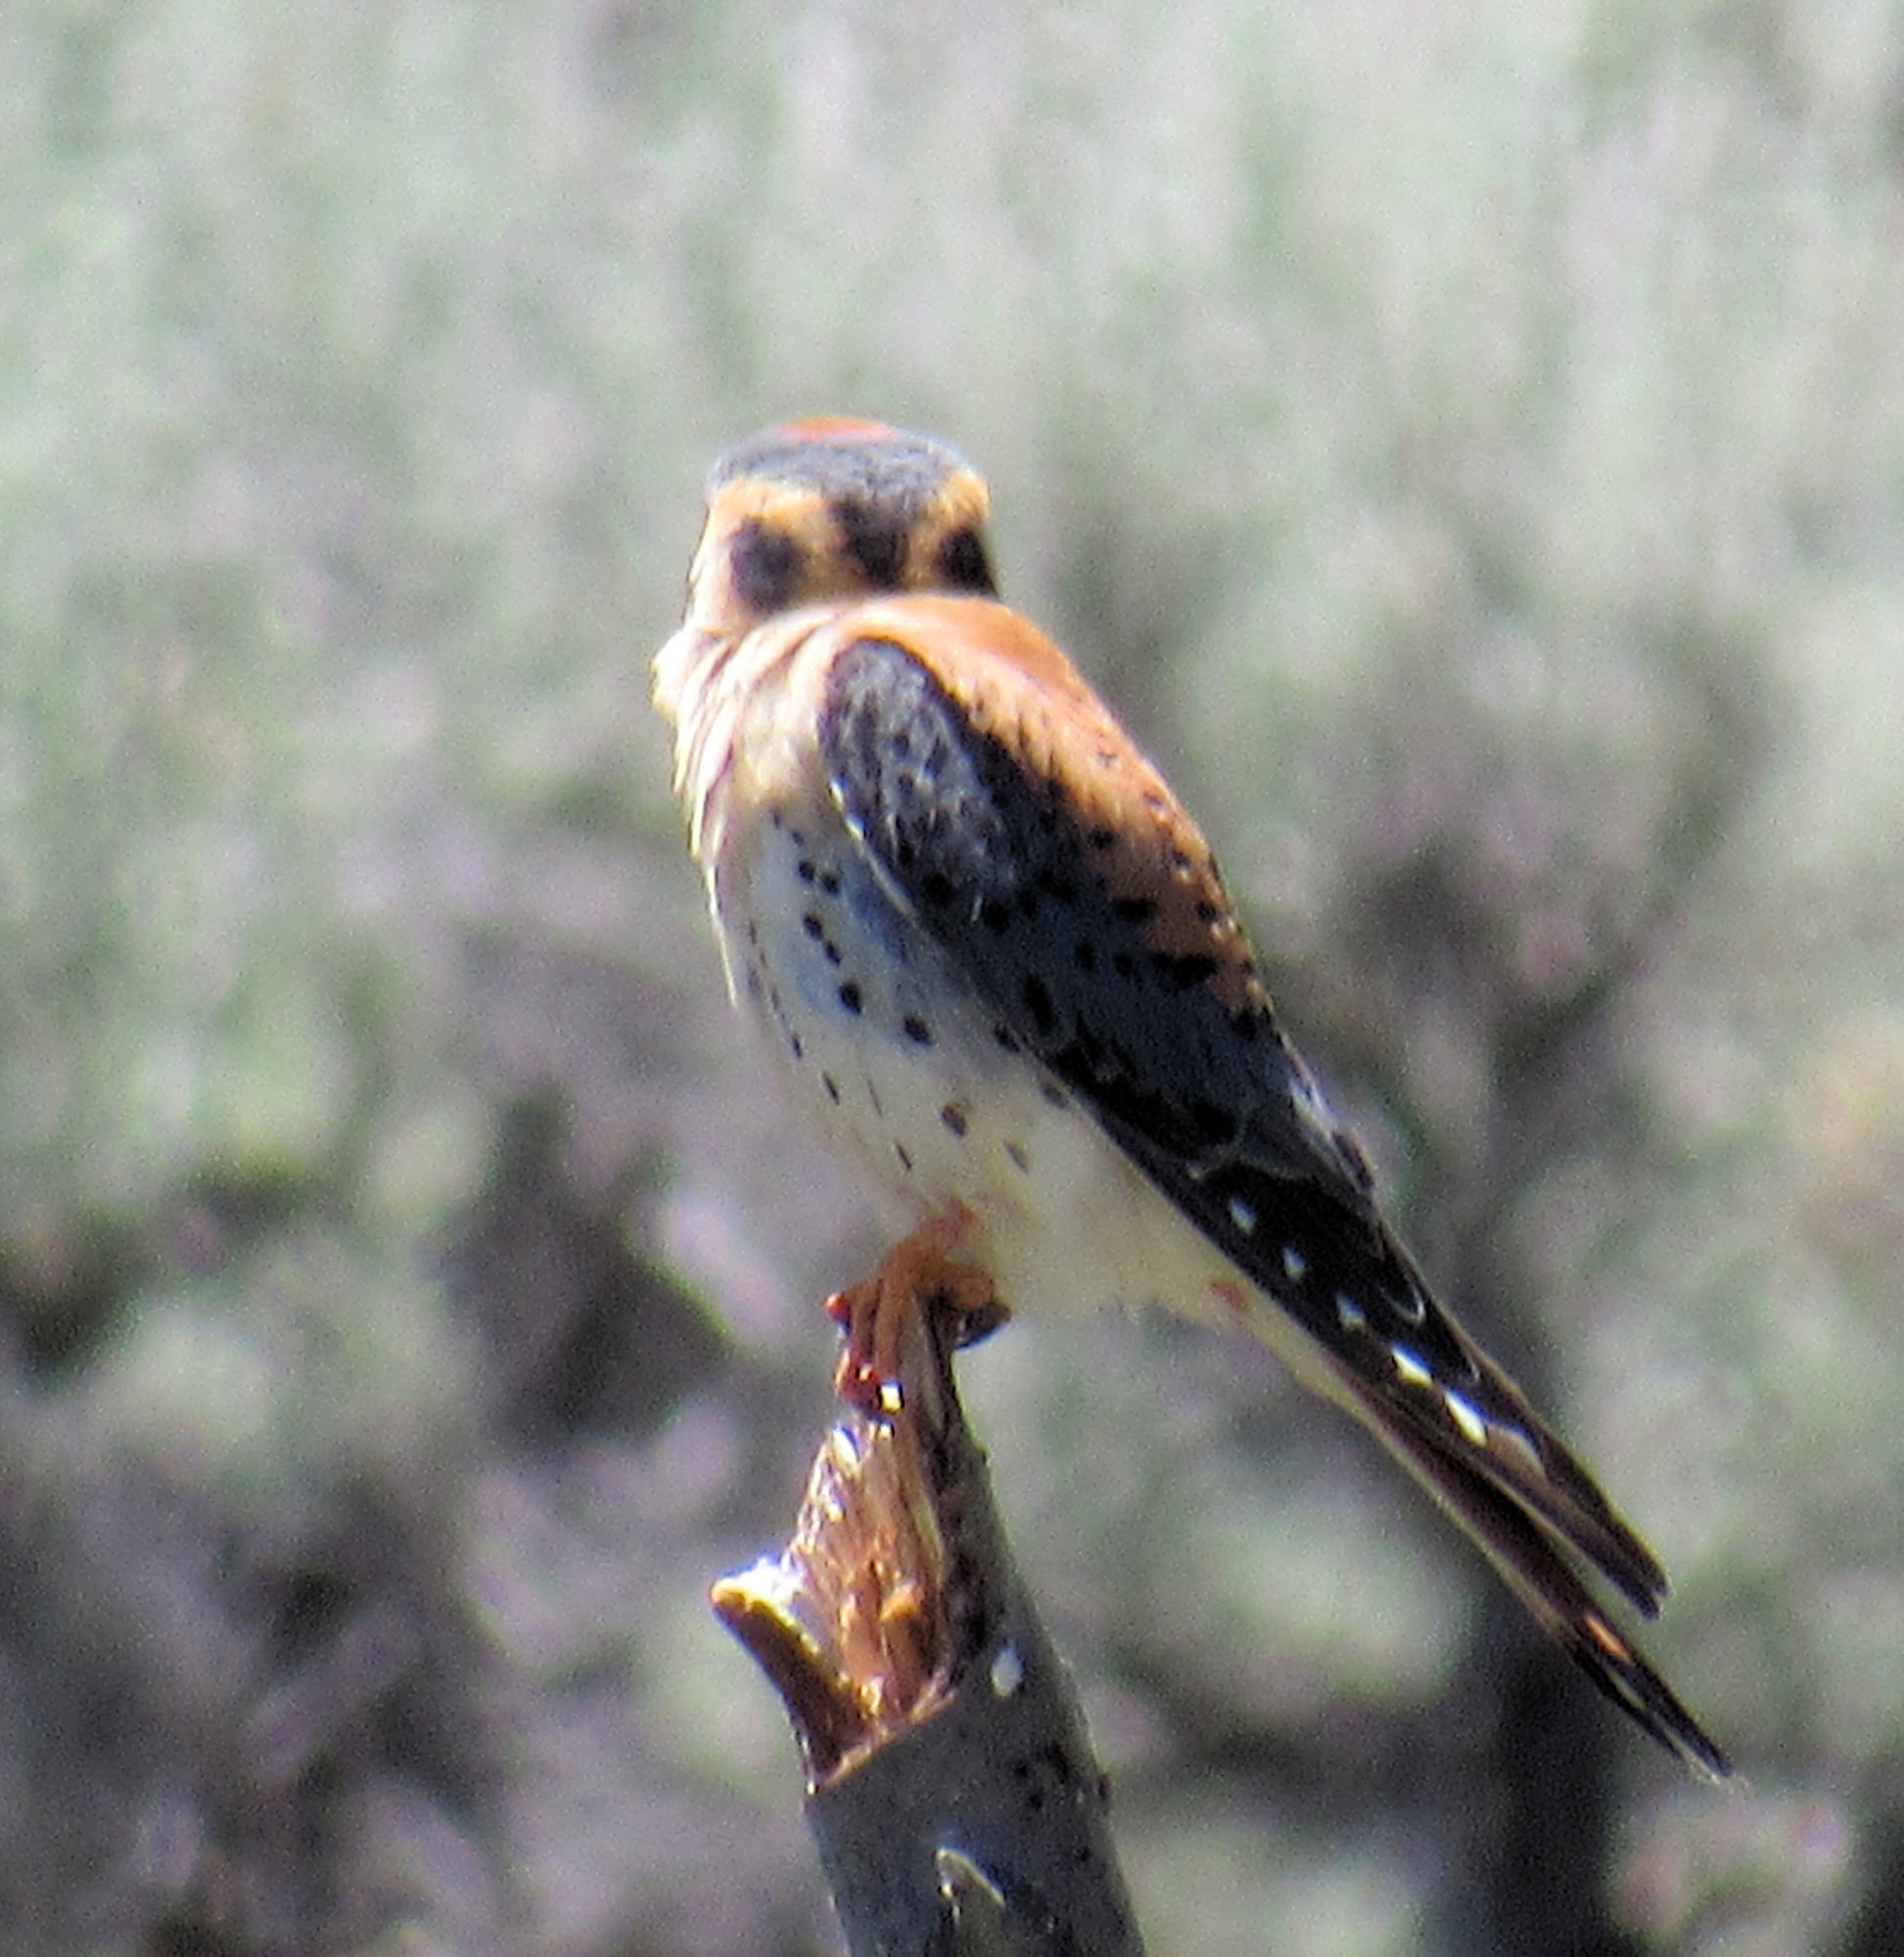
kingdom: Animalia
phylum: Chordata
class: Aves
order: Falconiformes
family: Falconidae
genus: Falco
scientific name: Falco sparverius
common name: American kestrel
